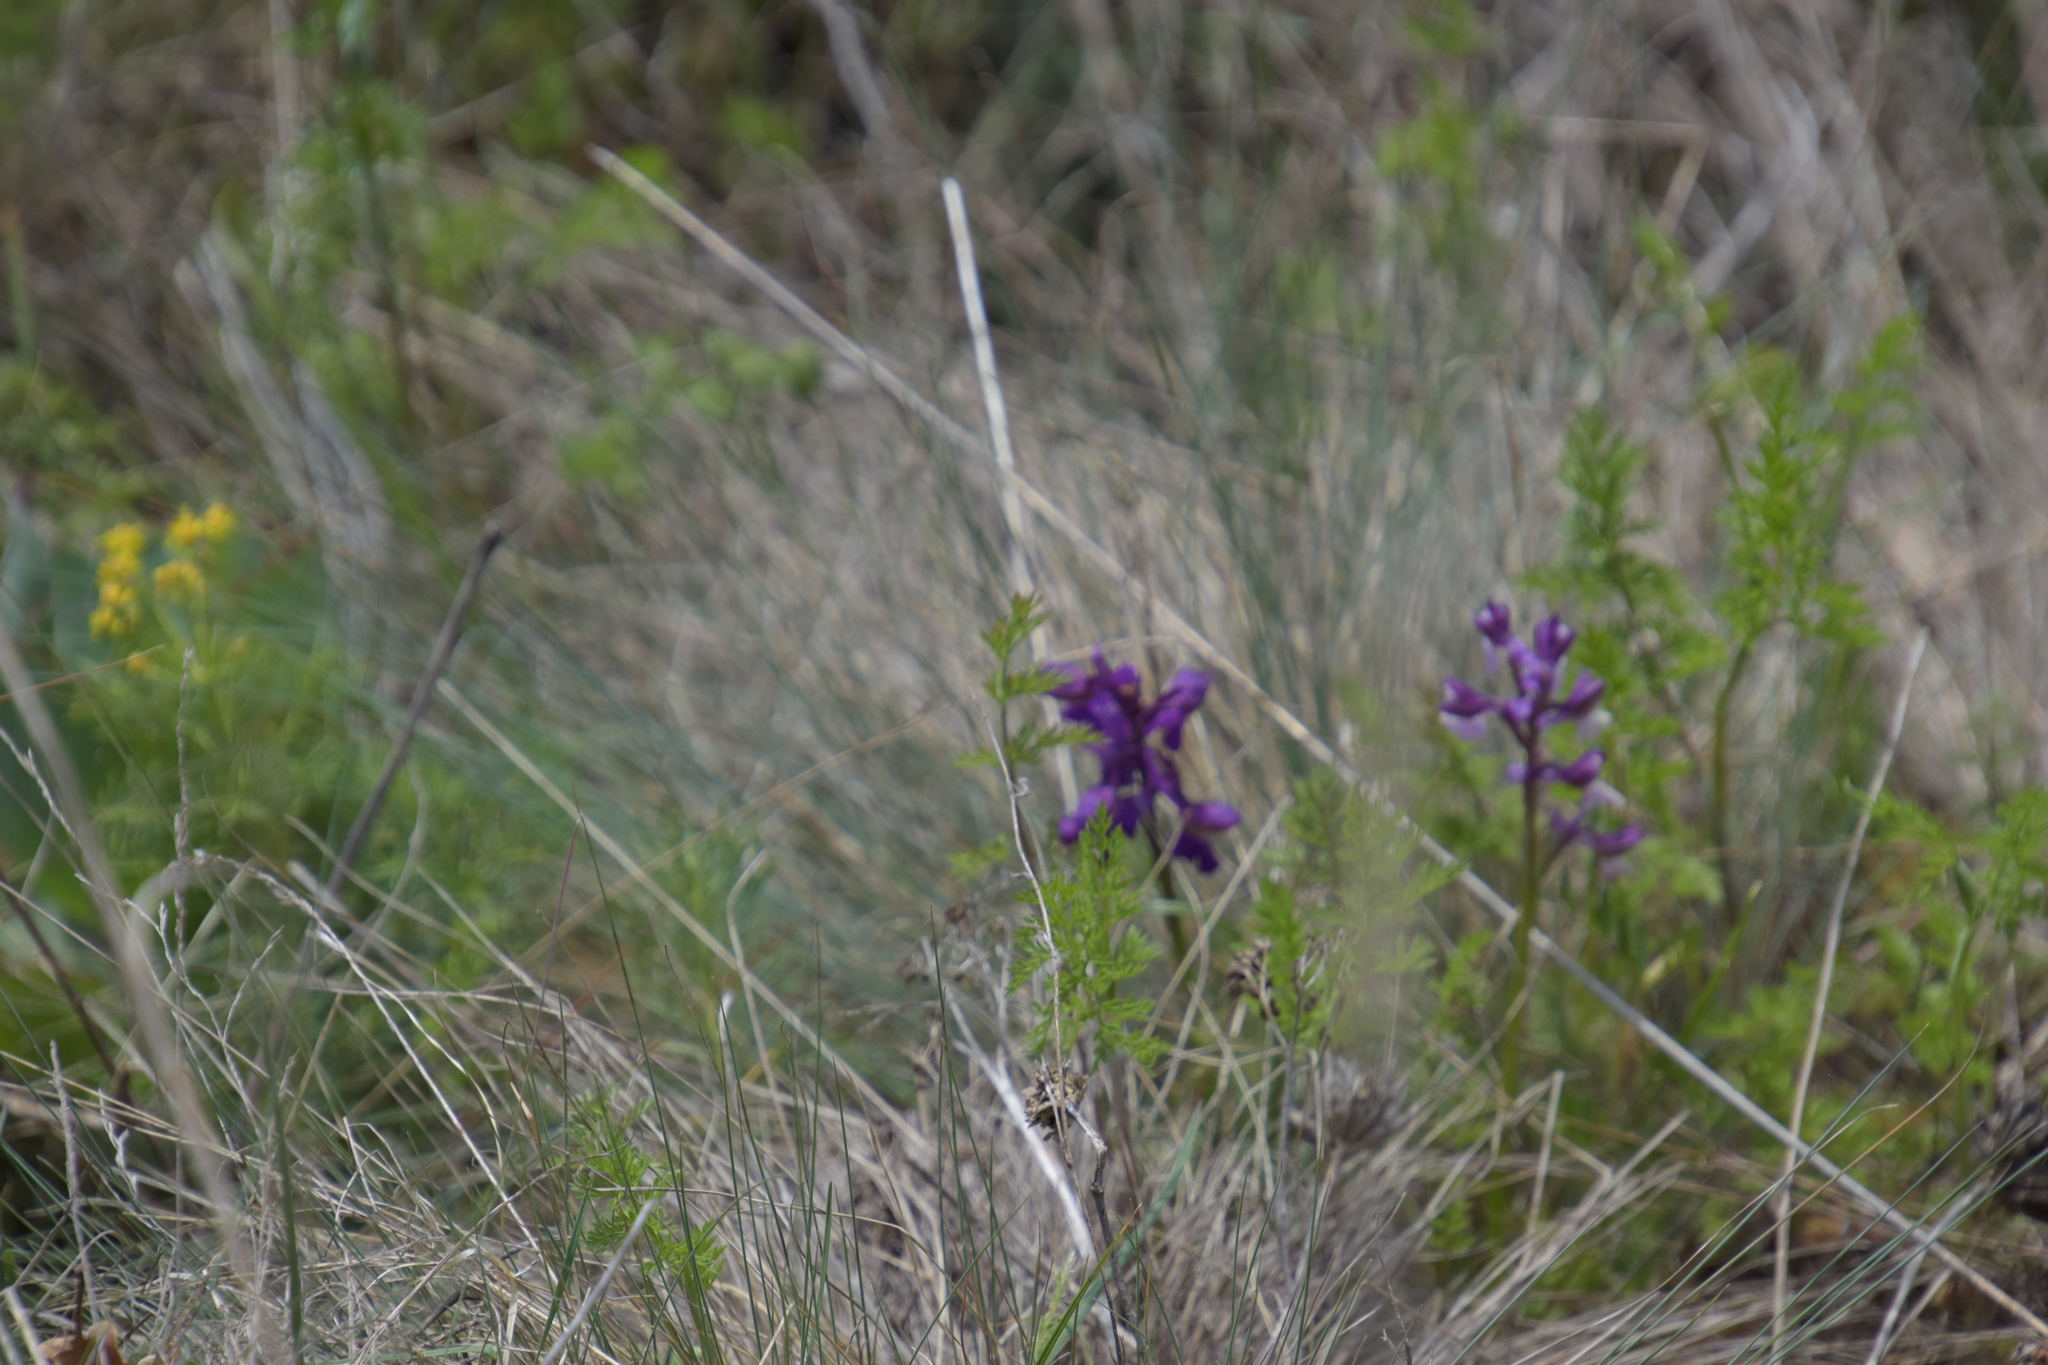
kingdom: Plantae
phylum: Tracheophyta
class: Liliopsida
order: Asparagales
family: Orchidaceae
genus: Anacamptis
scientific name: Anacamptis morio
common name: Green-winged orchid
